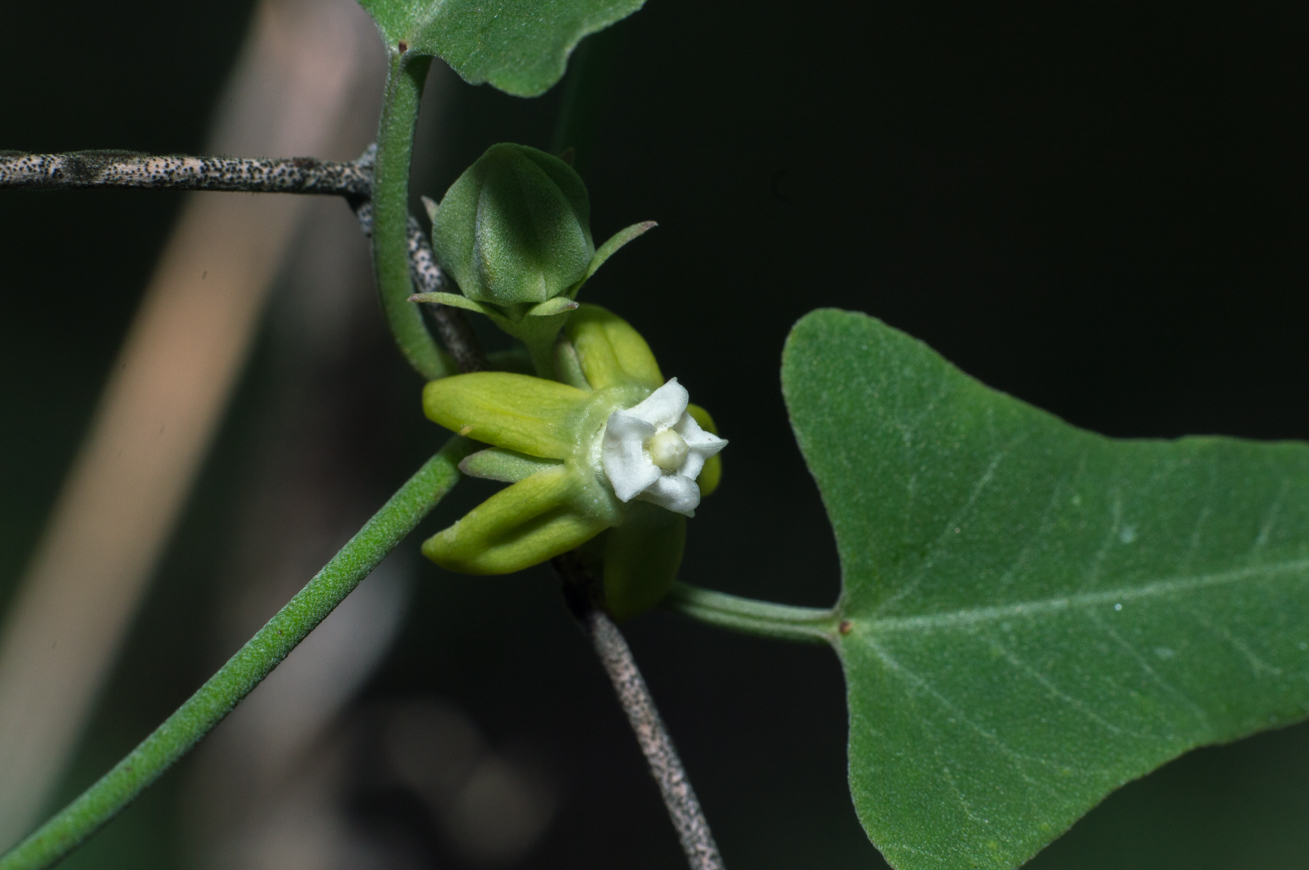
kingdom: Plantae
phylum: Tracheophyta
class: Magnoliopsida
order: Gentianales
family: Apocynaceae
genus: Araujia
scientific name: Araujia brachystephana
